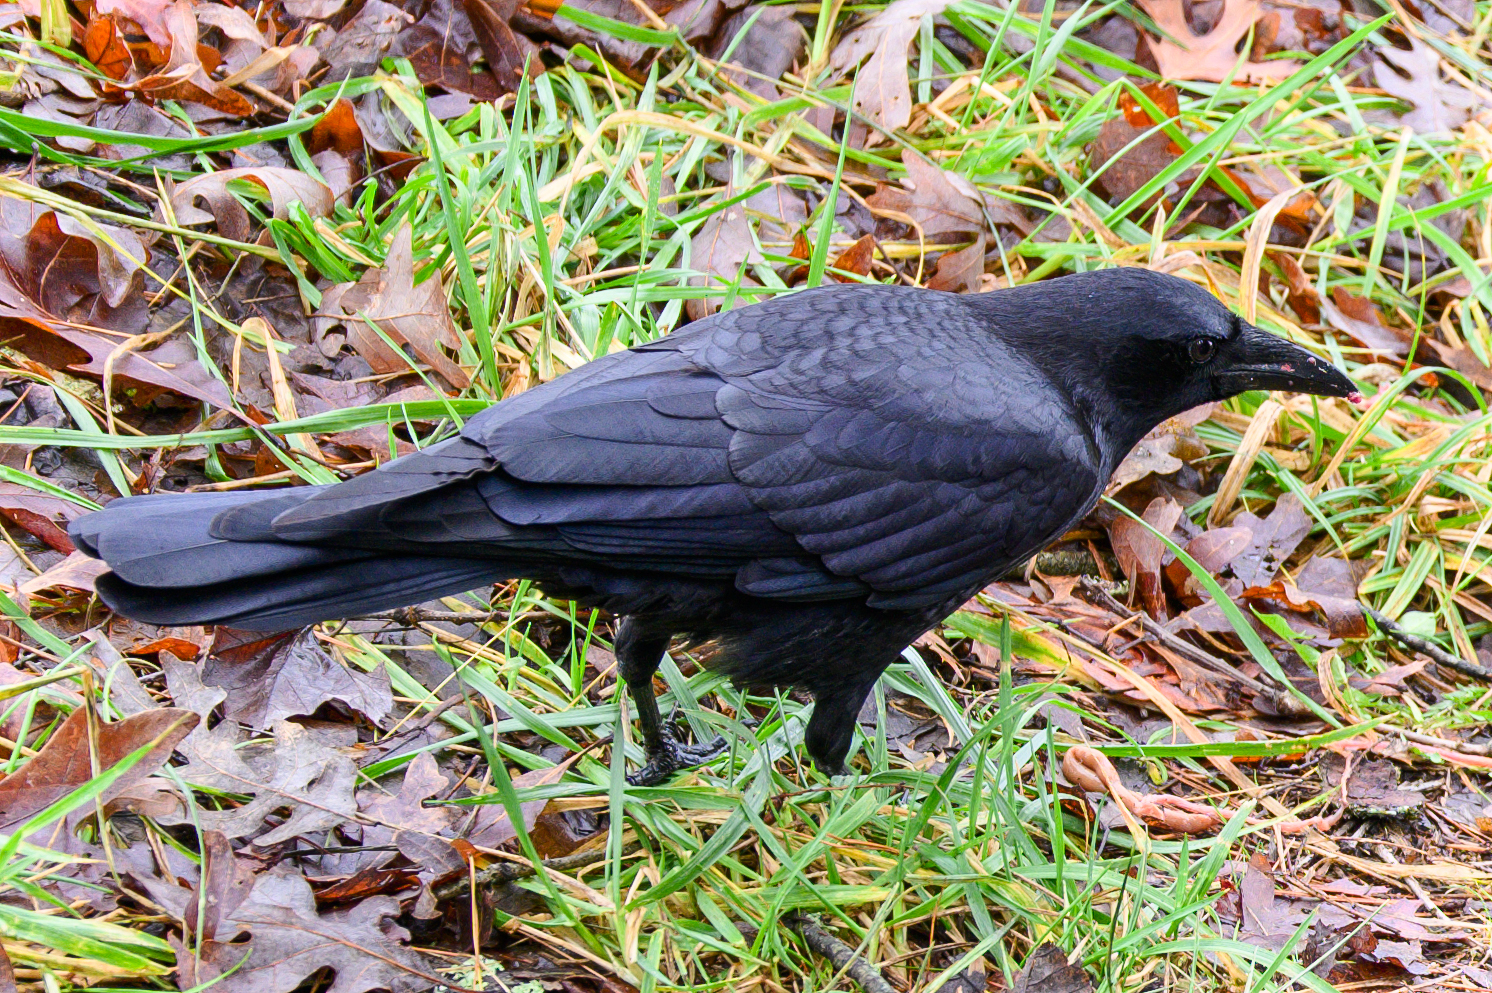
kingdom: Animalia
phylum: Chordata
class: Aves
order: Passeriformes
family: Corvidae
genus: Corvus
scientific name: Corvus brachyrhynchos
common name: American crow
